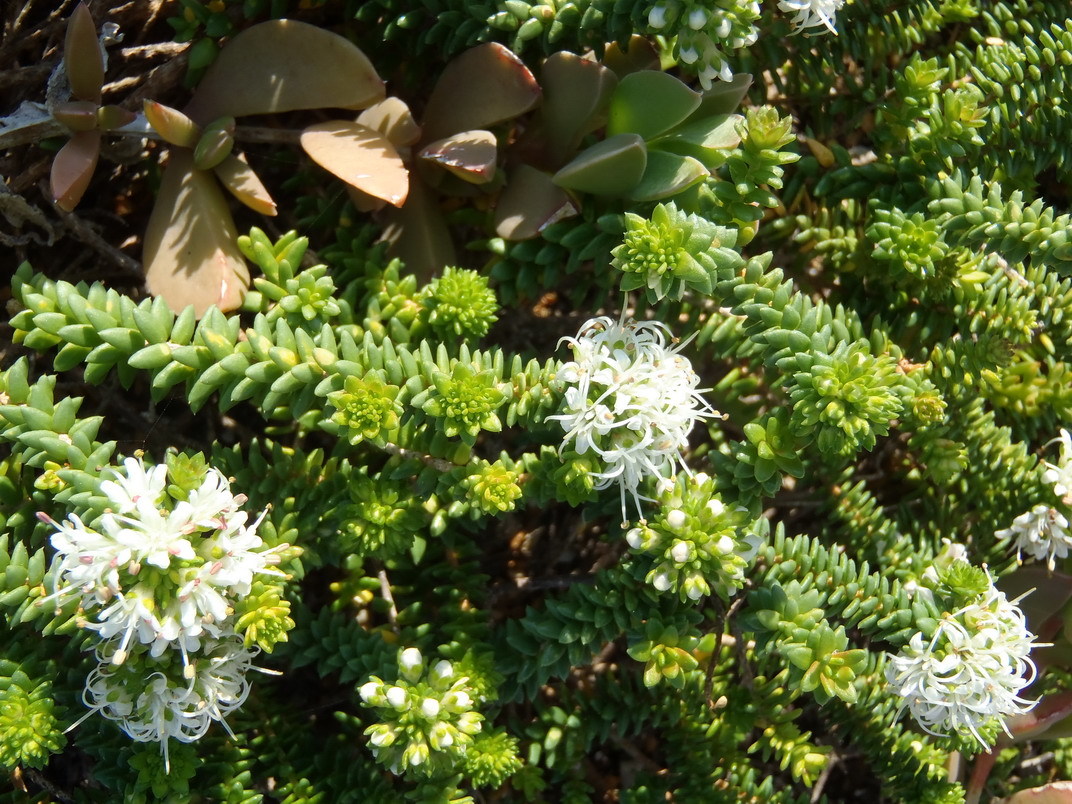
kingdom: Plantae
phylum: Tracheophyta
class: Magnoliopsida
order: Sapindales
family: Rutaceae
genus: Agathosma
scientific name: Agathosma apiculata
